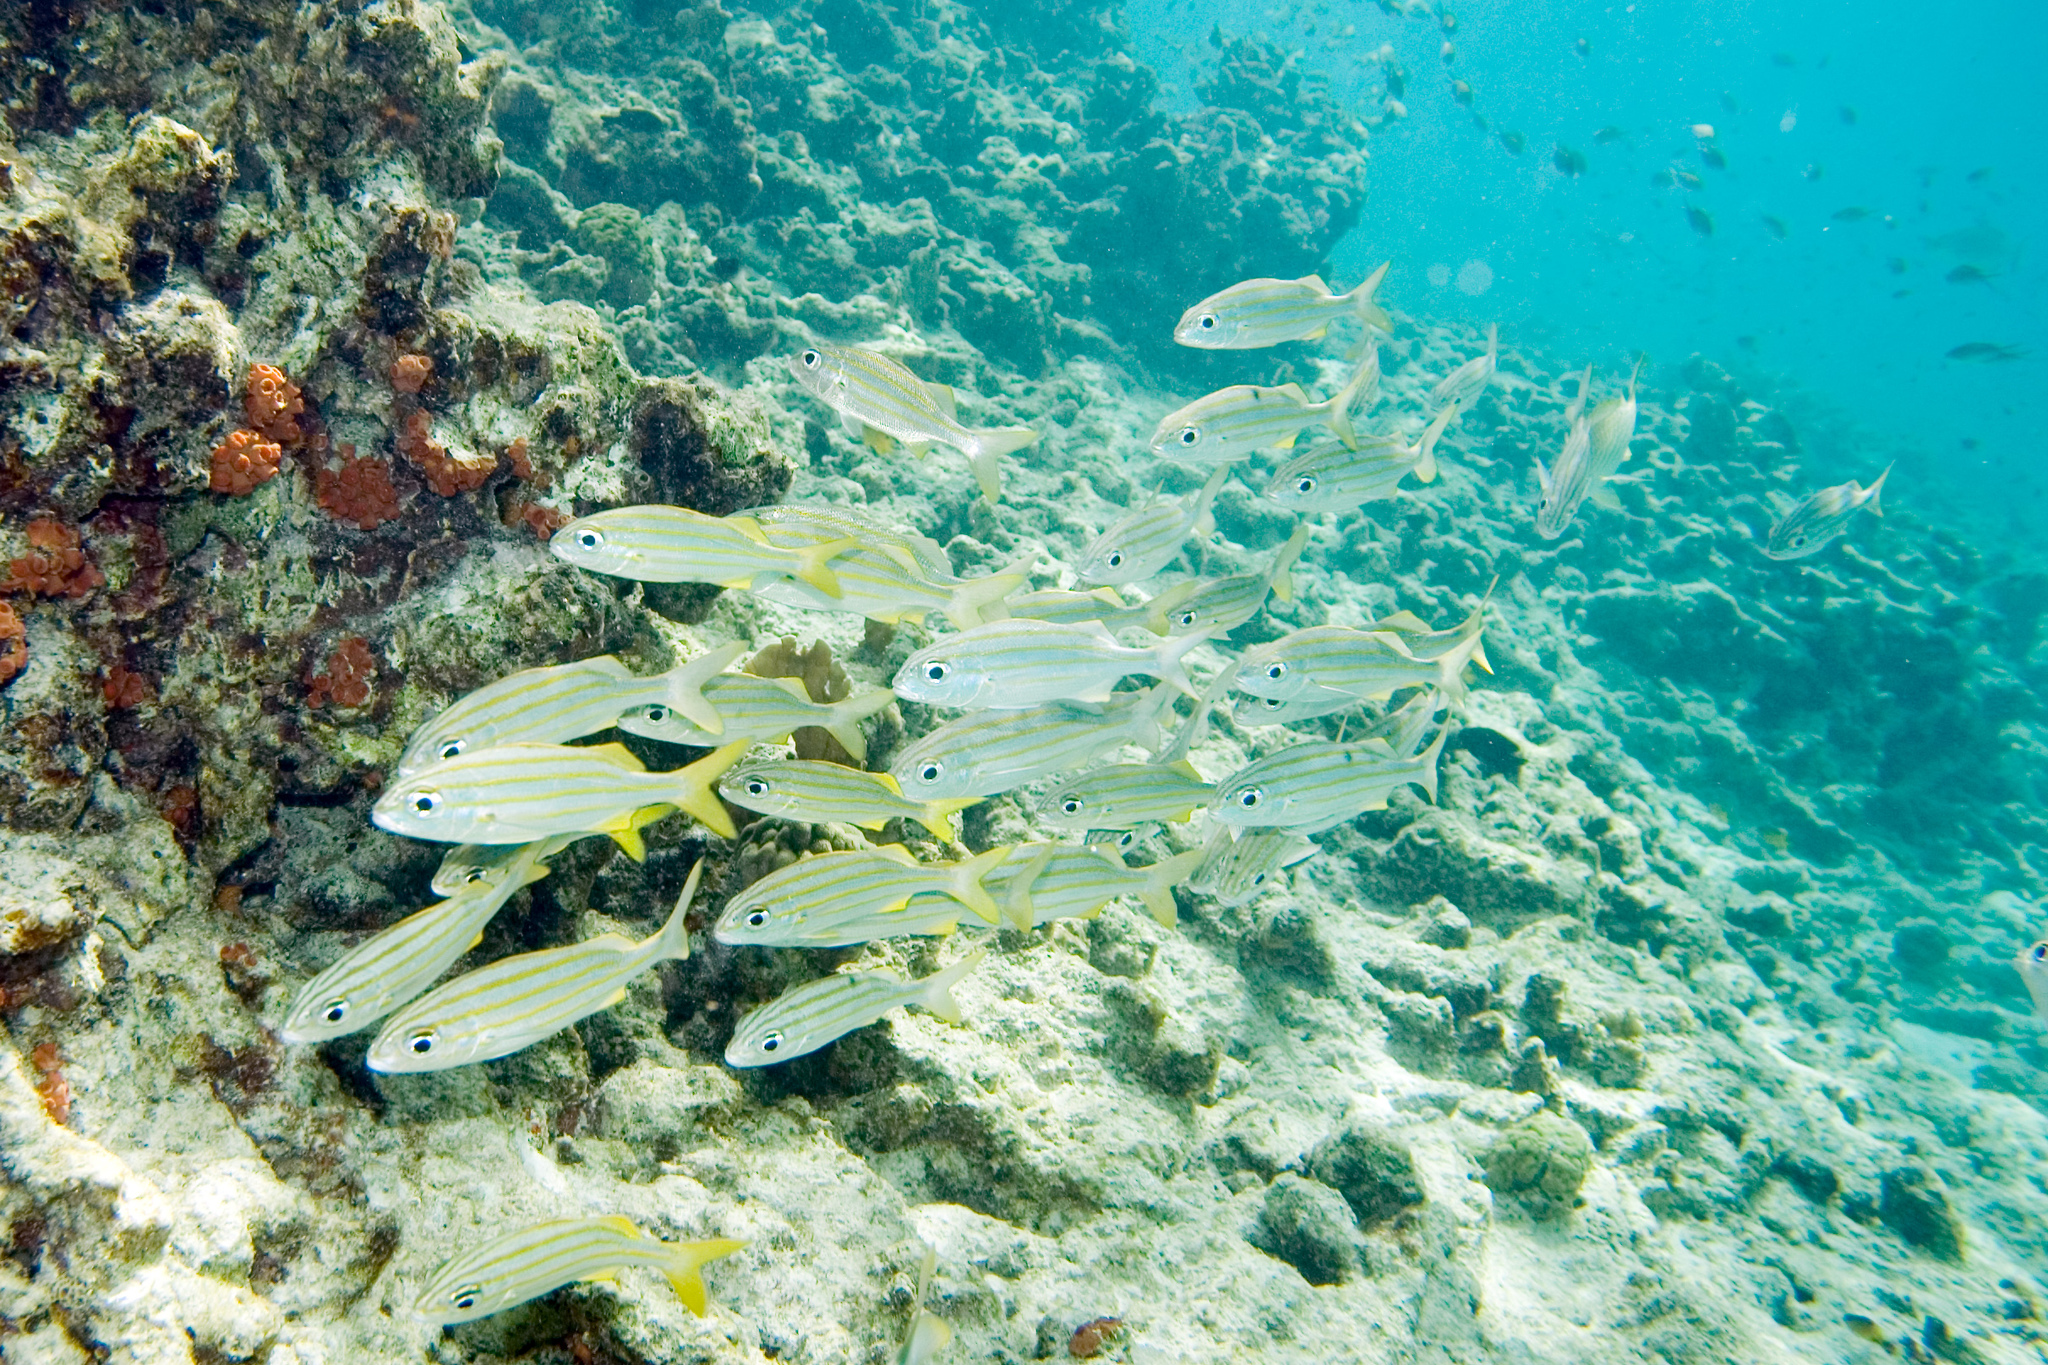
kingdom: Animalia
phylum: Chordata
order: Perciformes
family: Haemulidae
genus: Haemulon
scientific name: Haemulon chrysargyreum
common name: Smallmouth grunt
